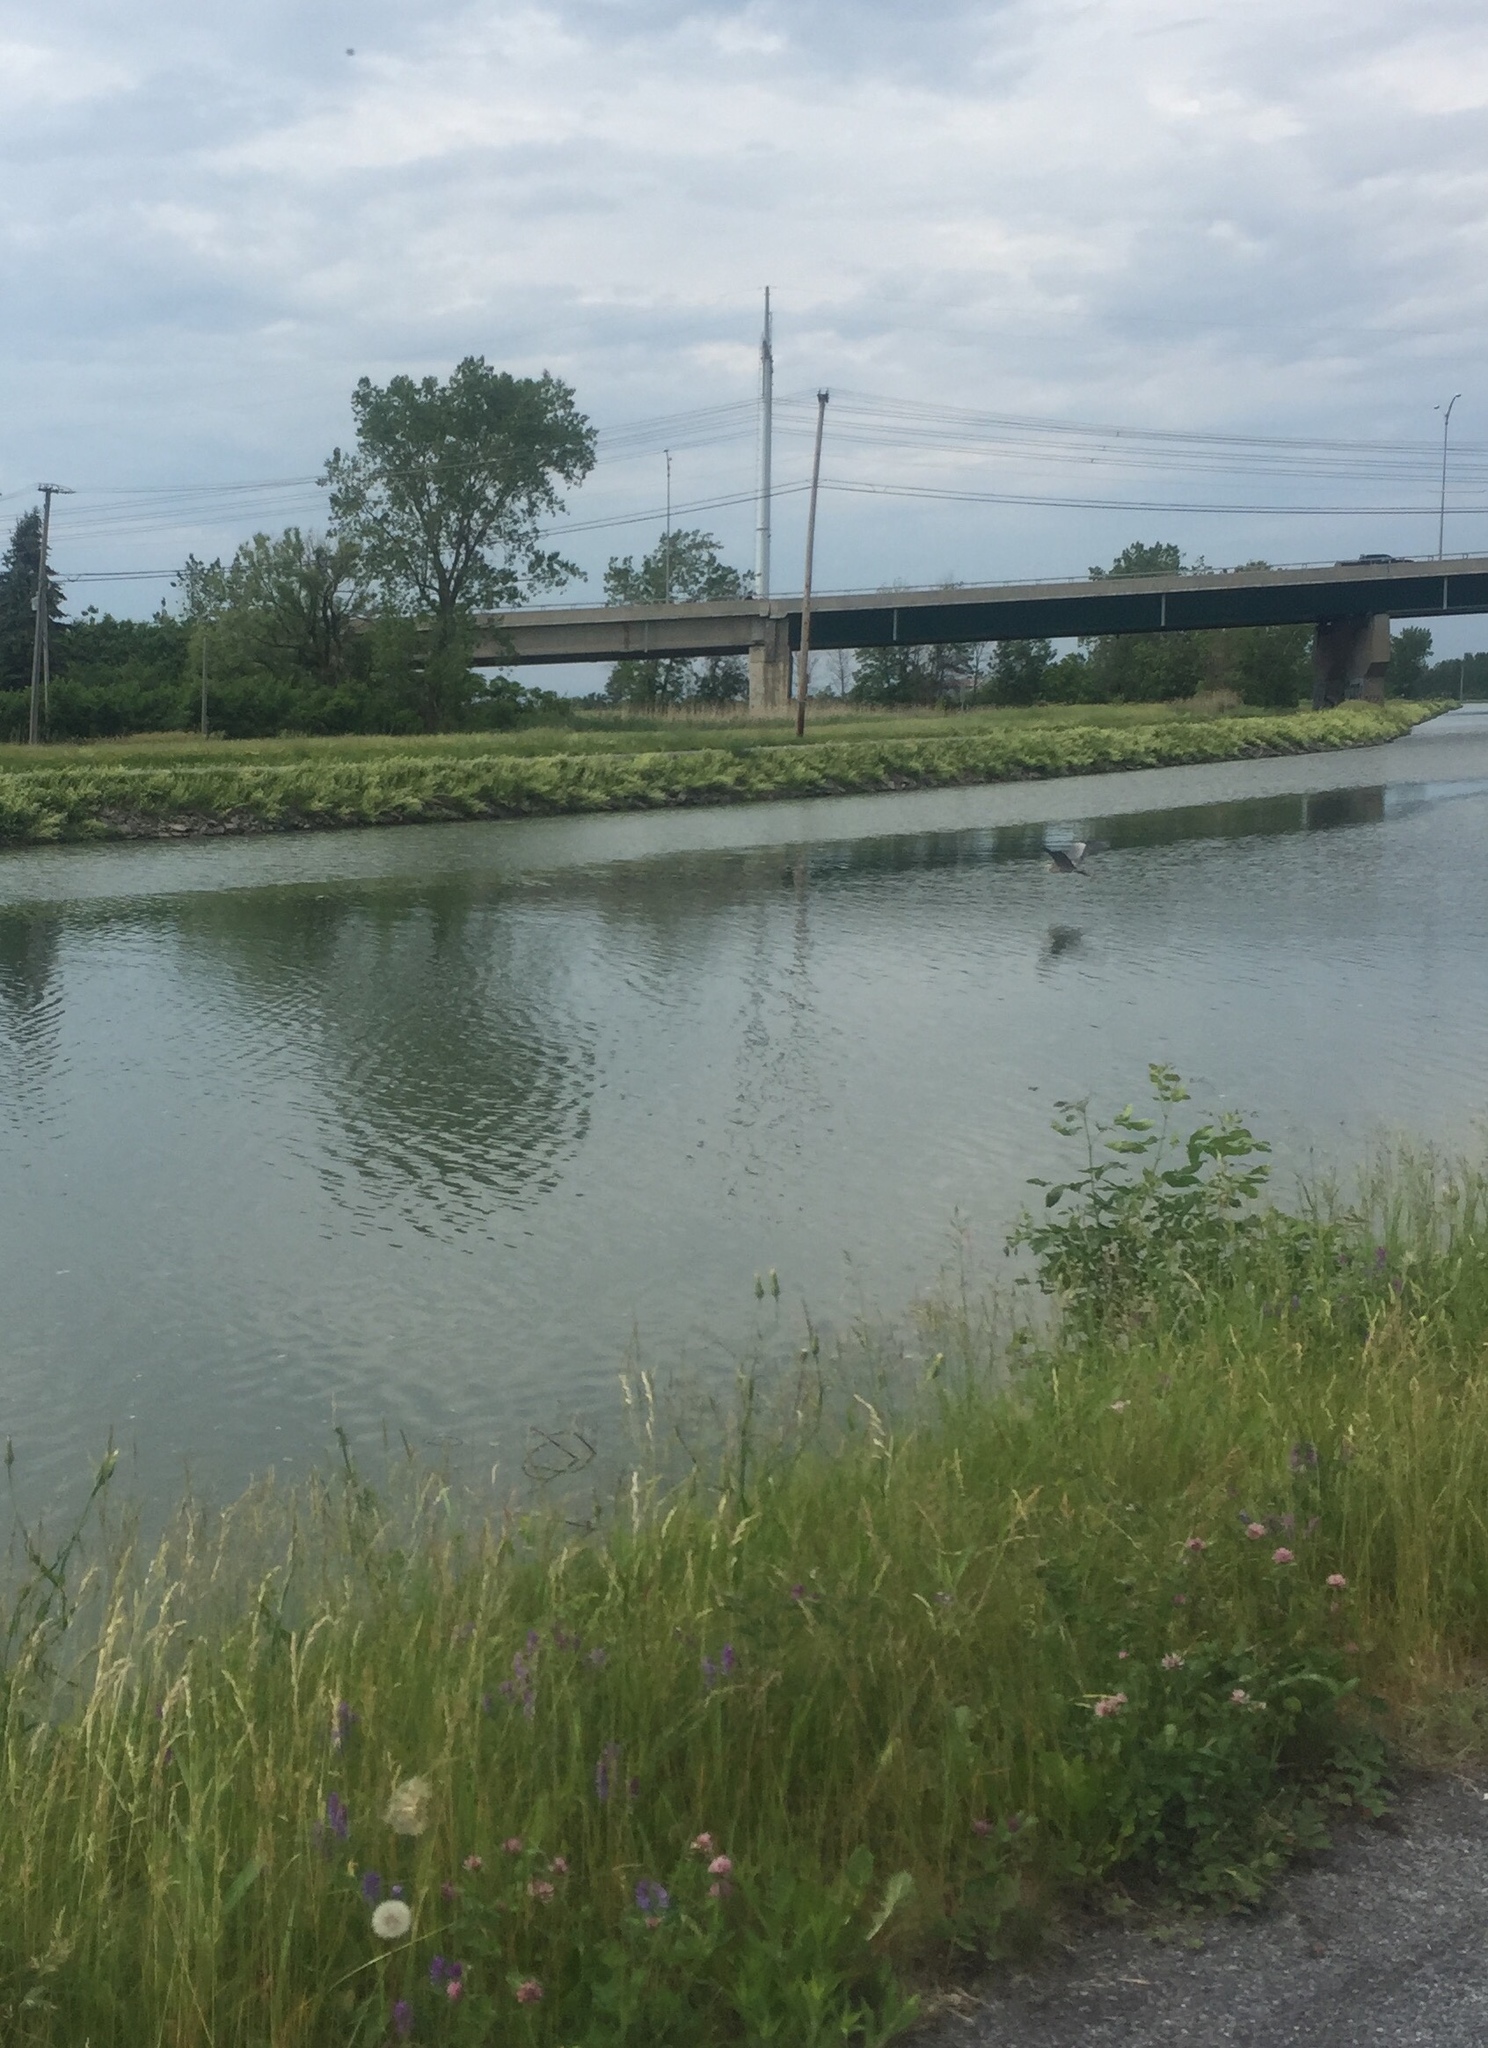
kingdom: Animalia
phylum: Chordata
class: Aves
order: Pelecaniformes
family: Ardeidae
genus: Ardea
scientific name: Ardea herodias
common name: Great blue heron
